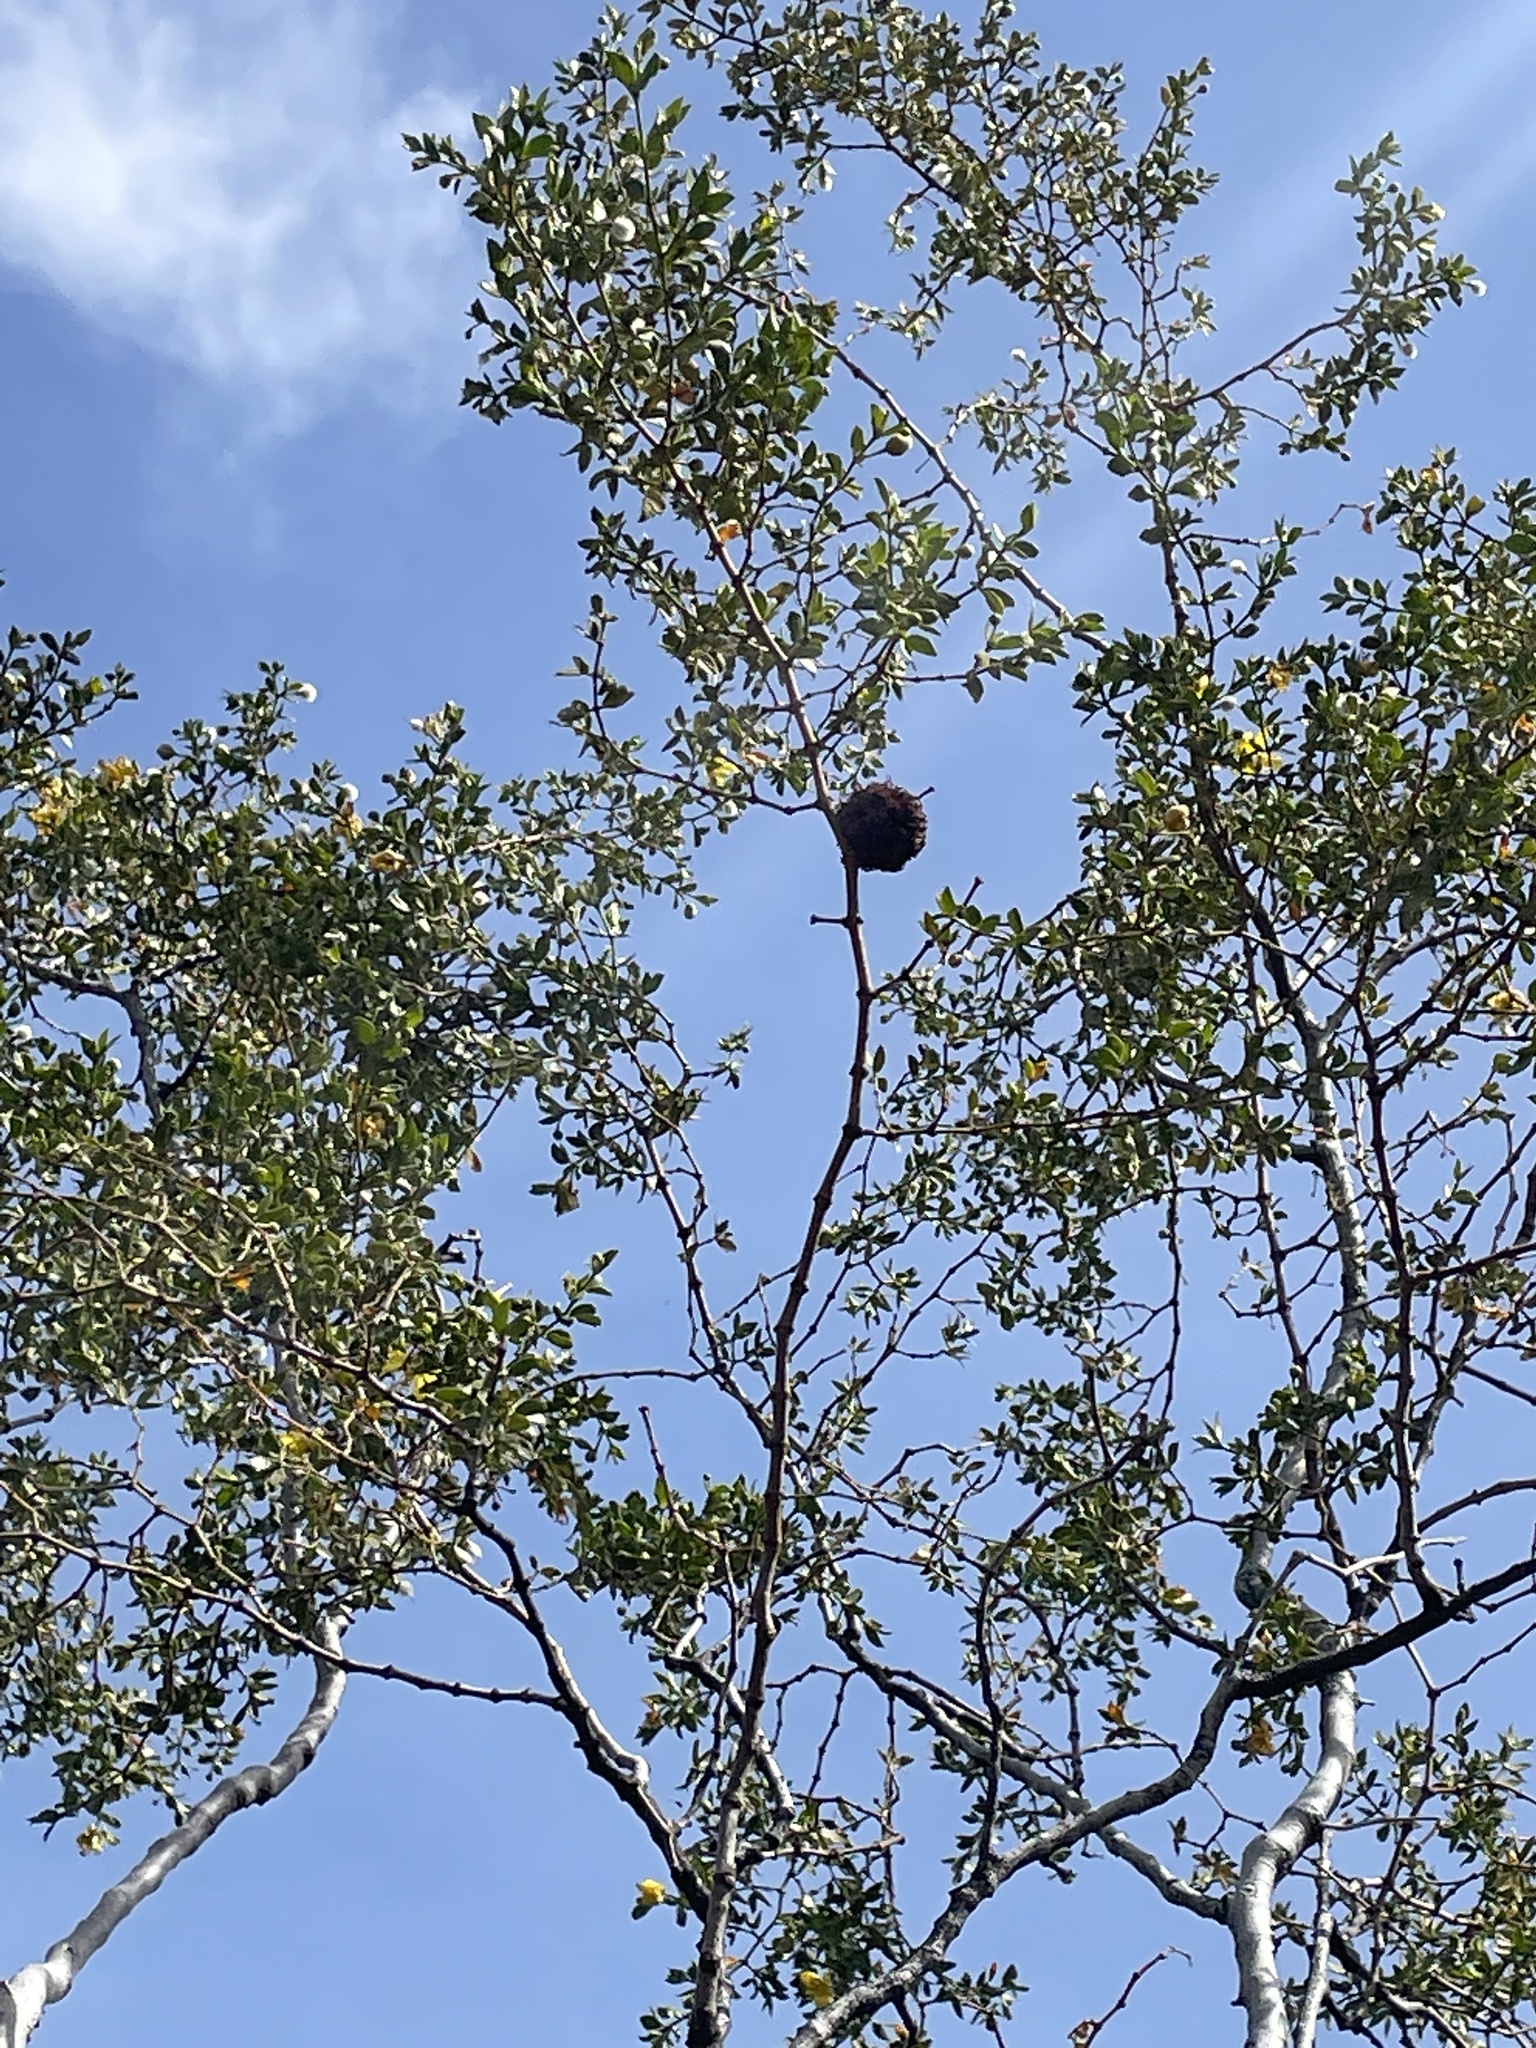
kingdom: Animalia
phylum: Arthropoda
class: Insecta
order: Diptera
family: Cecidomyiidae
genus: Asphondylia
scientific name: Asphondylia auripila
